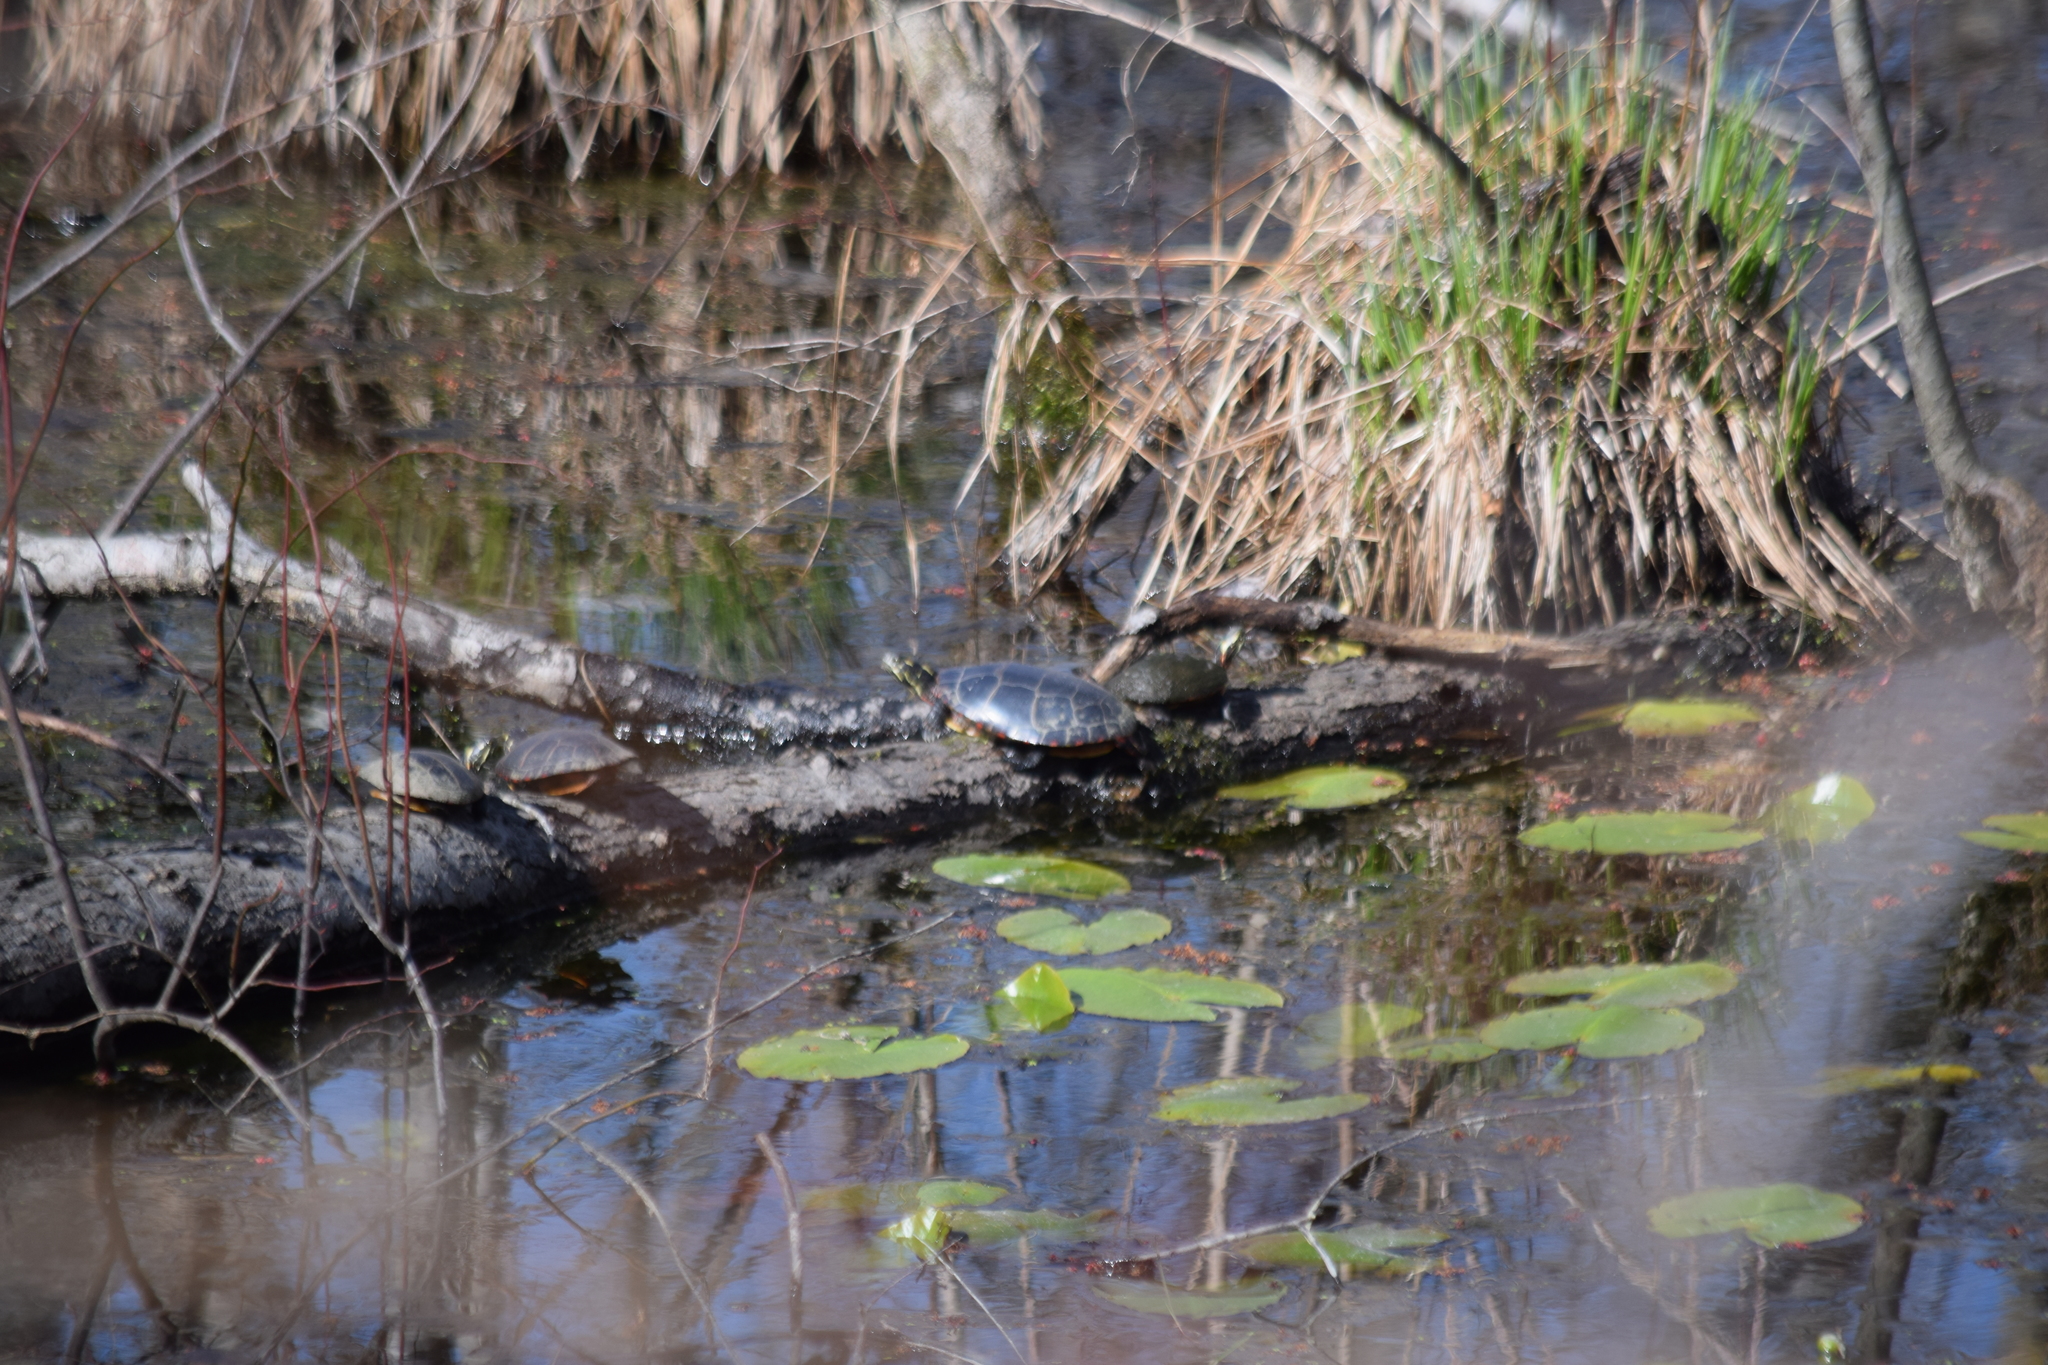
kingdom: Animalia
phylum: Chordata
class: Testudines
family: Emydidae
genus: Chrysemys
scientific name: Chrysemys picta
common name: Painted turtle
